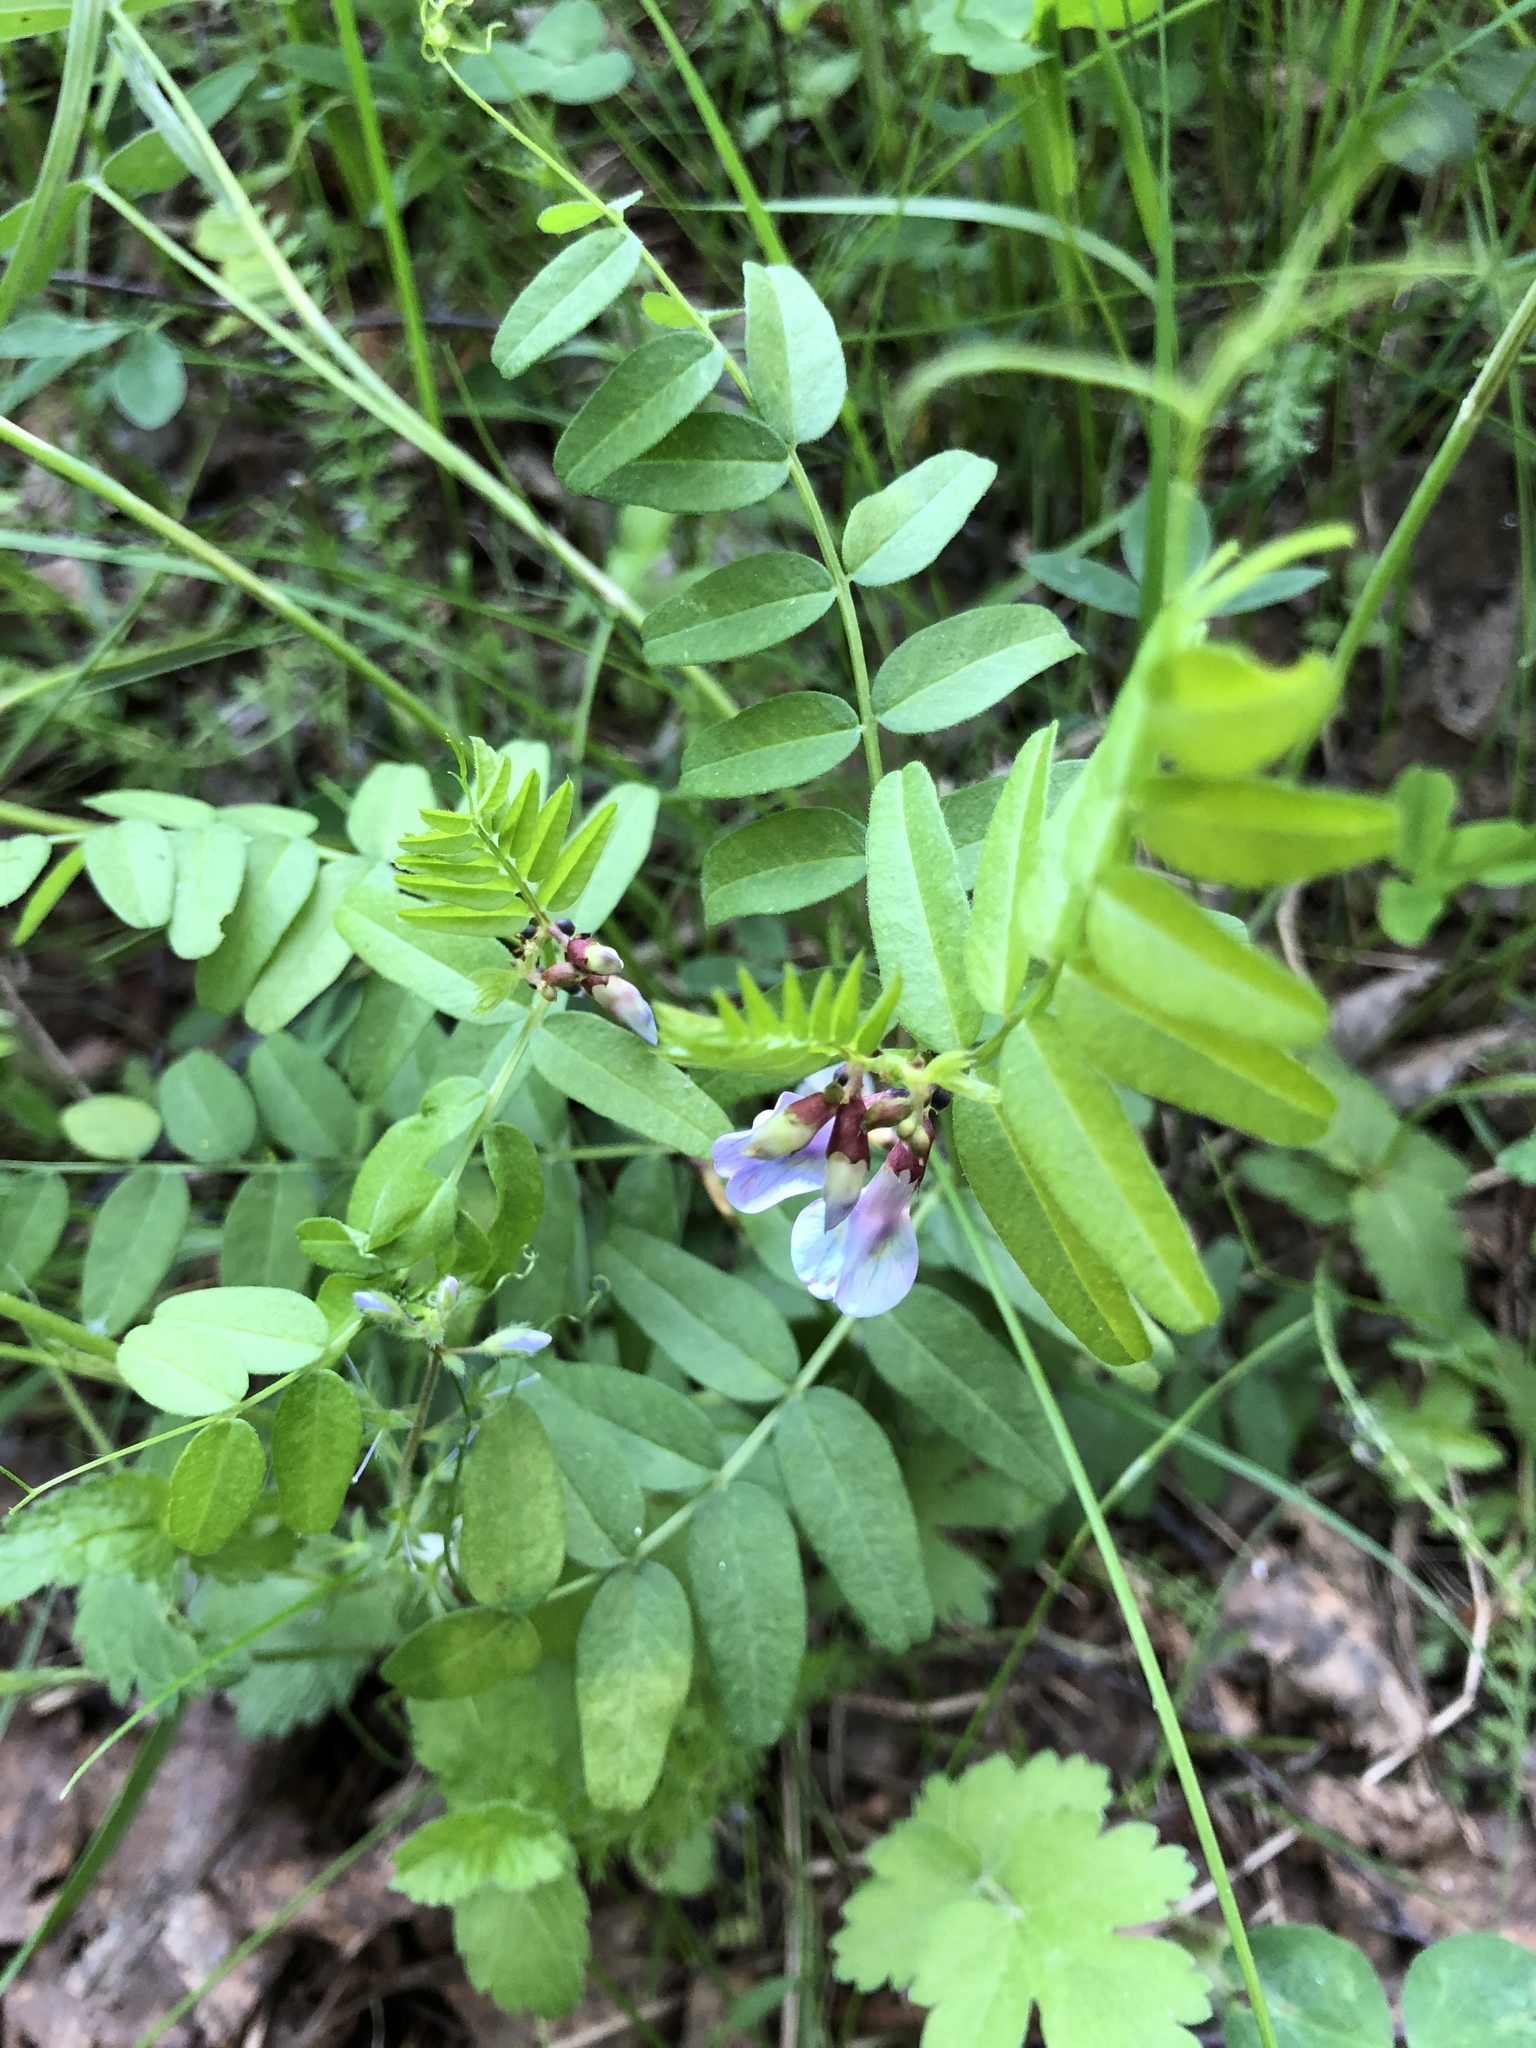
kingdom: Plantae
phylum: Tracheophyta
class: Magnoliopsida
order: Fabales
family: Fabaceae
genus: Vicia
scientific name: Vicia sepium
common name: Bush vetch
